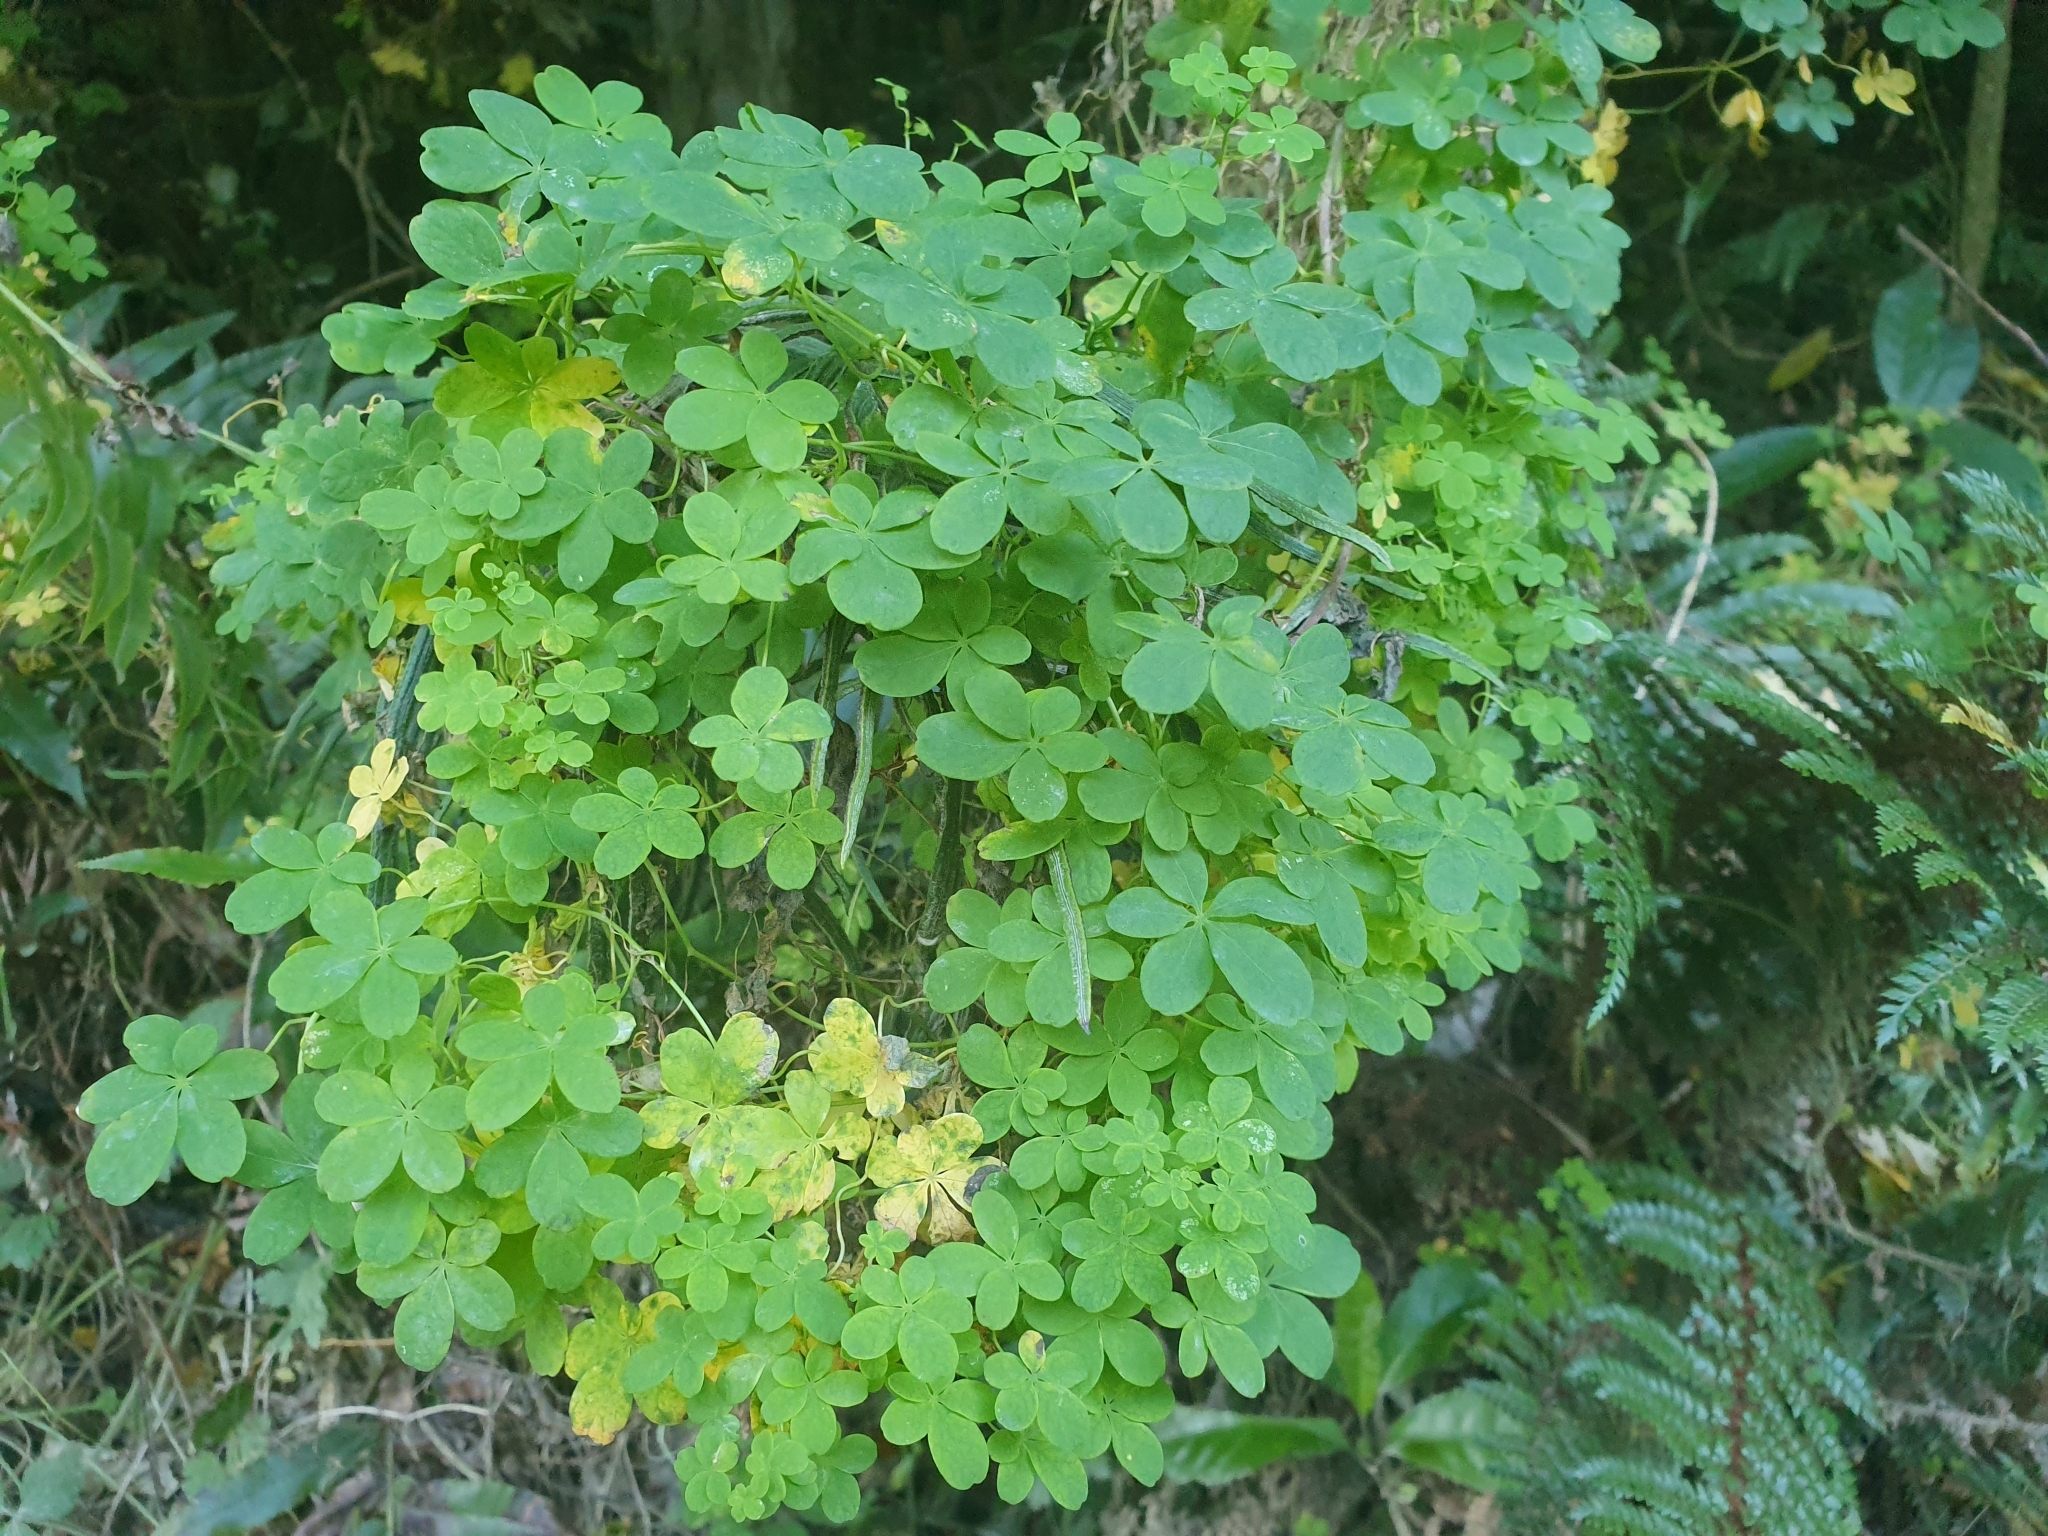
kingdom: Plantae
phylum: Tracheophyta
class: Magnoliopsida
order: Brassicales
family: Tropaeolaceae
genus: Tropaeolum
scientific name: Tropaeolum speciosum
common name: Flame nasturtium
